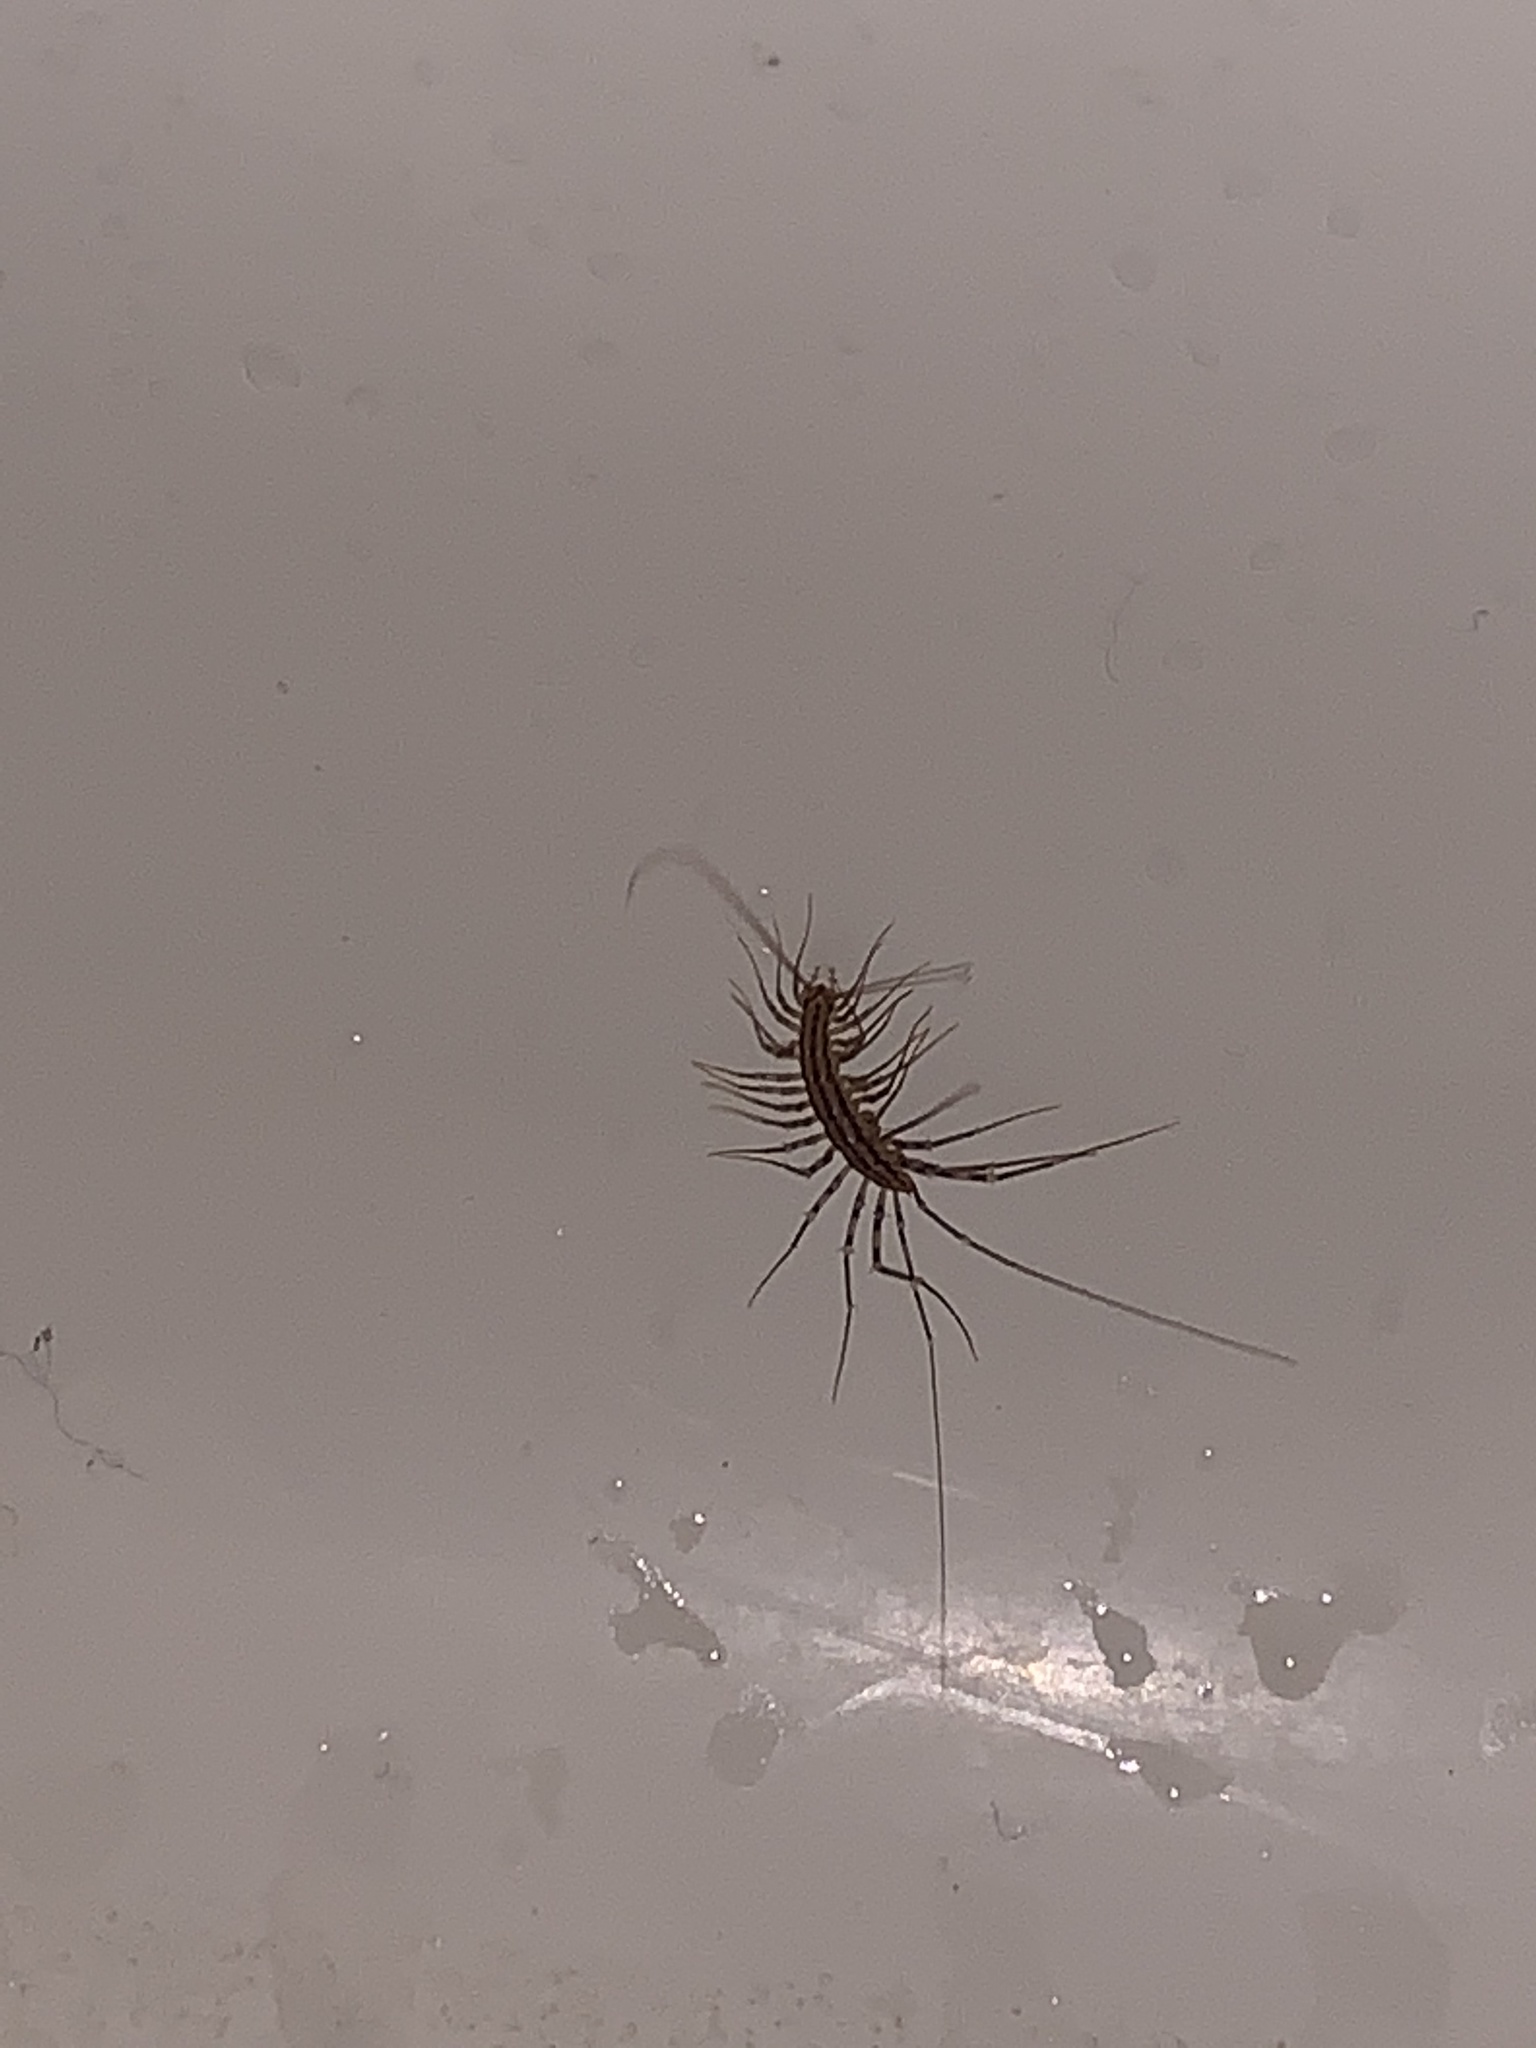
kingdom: Animalia
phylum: Arthropoda
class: Chilopoda
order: Scutigeromorpha
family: Scutigeridae
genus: Scutigera
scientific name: Scutigera coleoptrata
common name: House centipede
